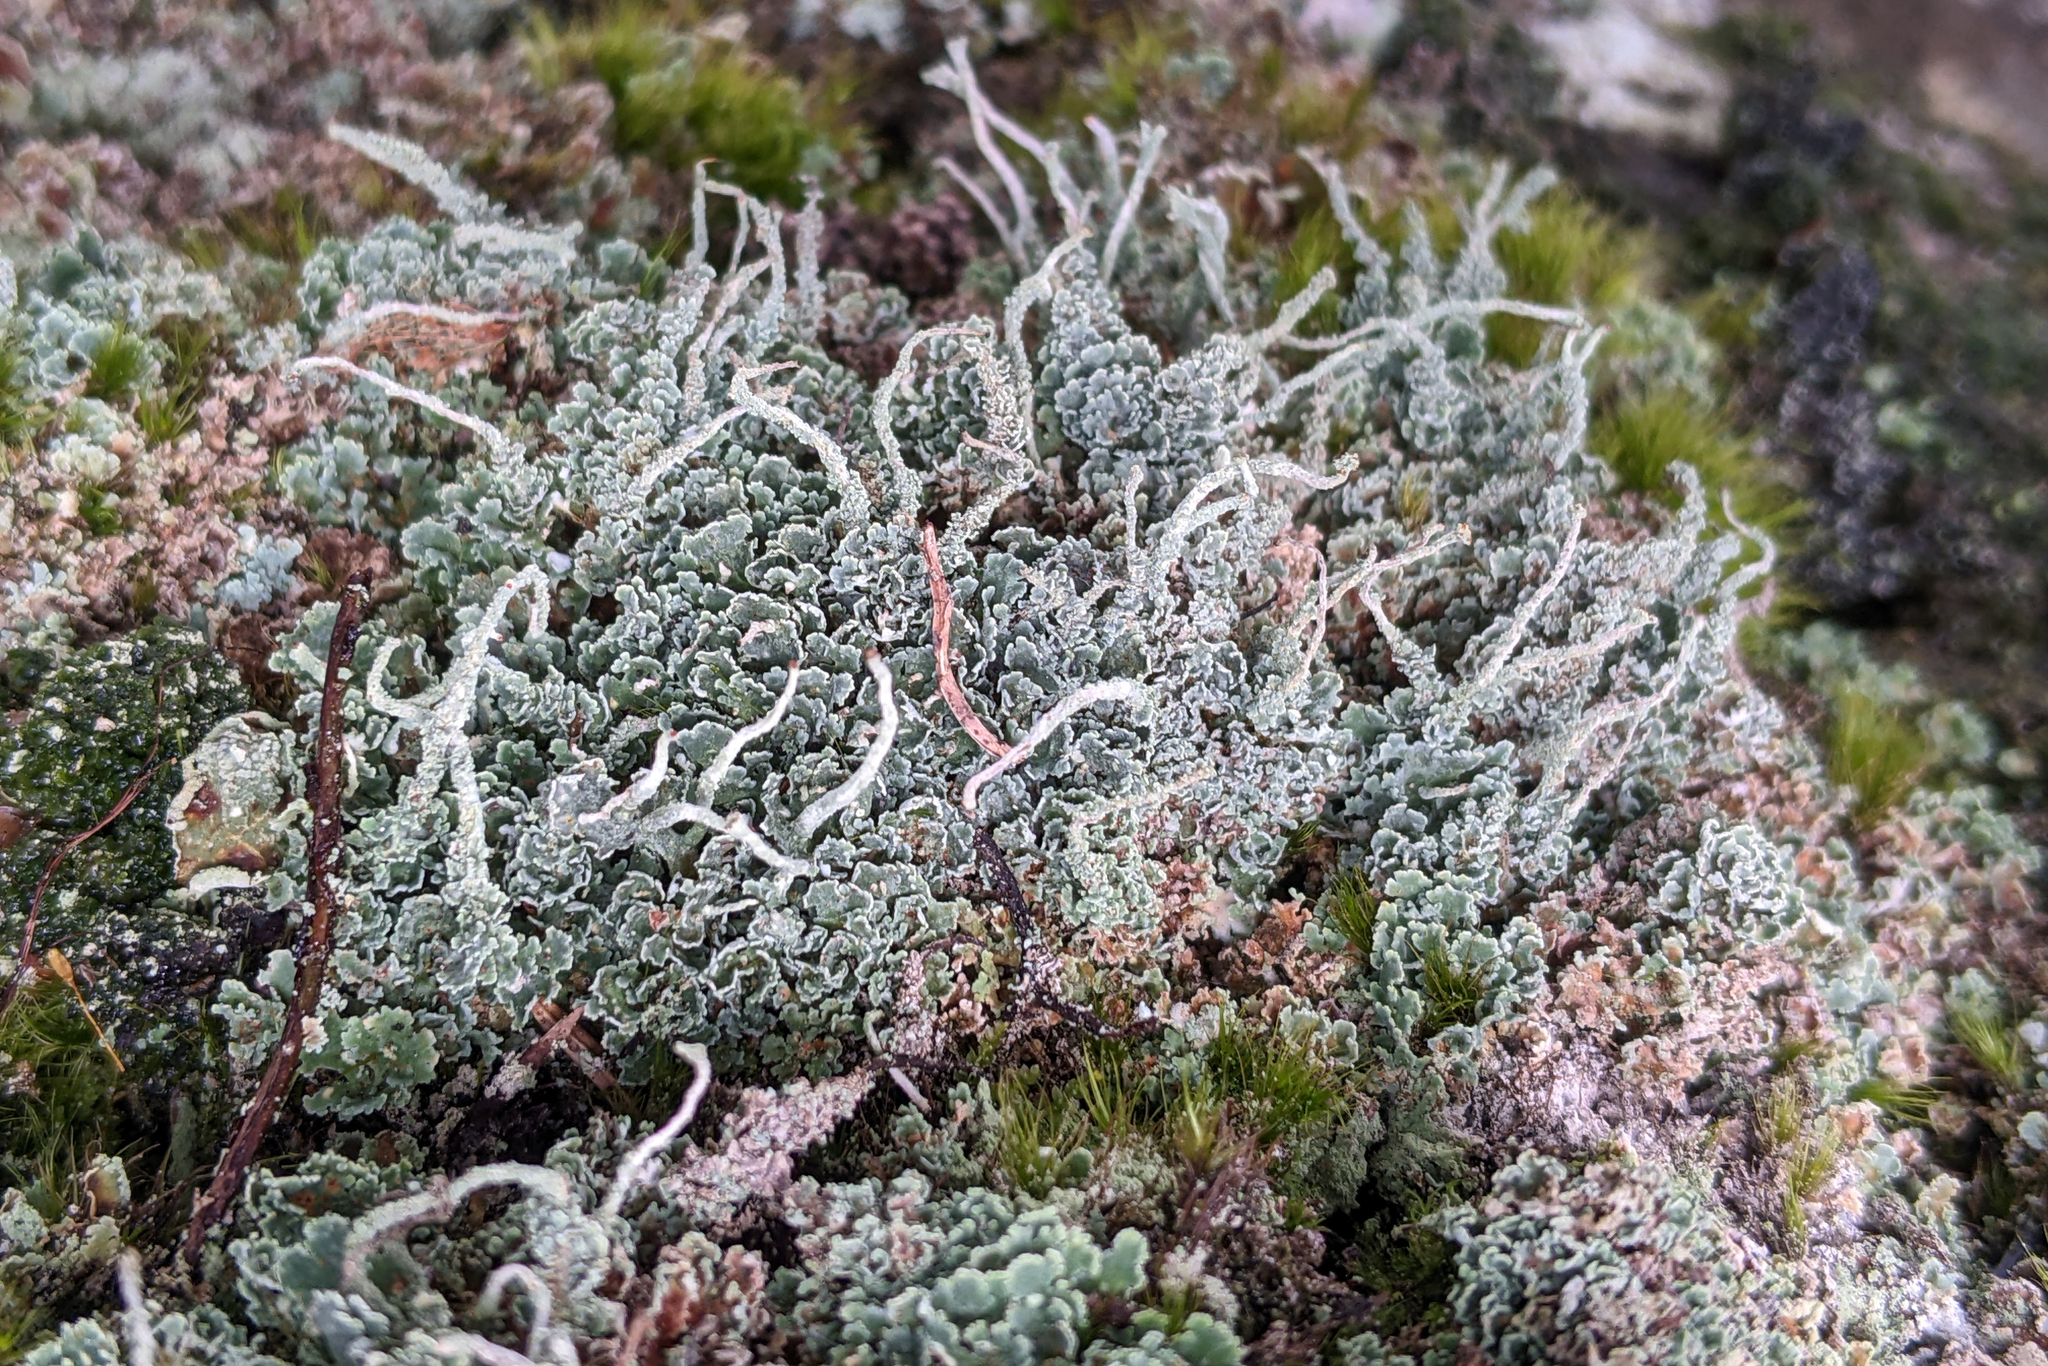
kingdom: Fungi
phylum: Ascomycota
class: Lecanoromycetes
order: Lecanorales
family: Cladoniaceae
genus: Cladonia
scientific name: Cladonia coniocraea
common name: Common powderhorn
